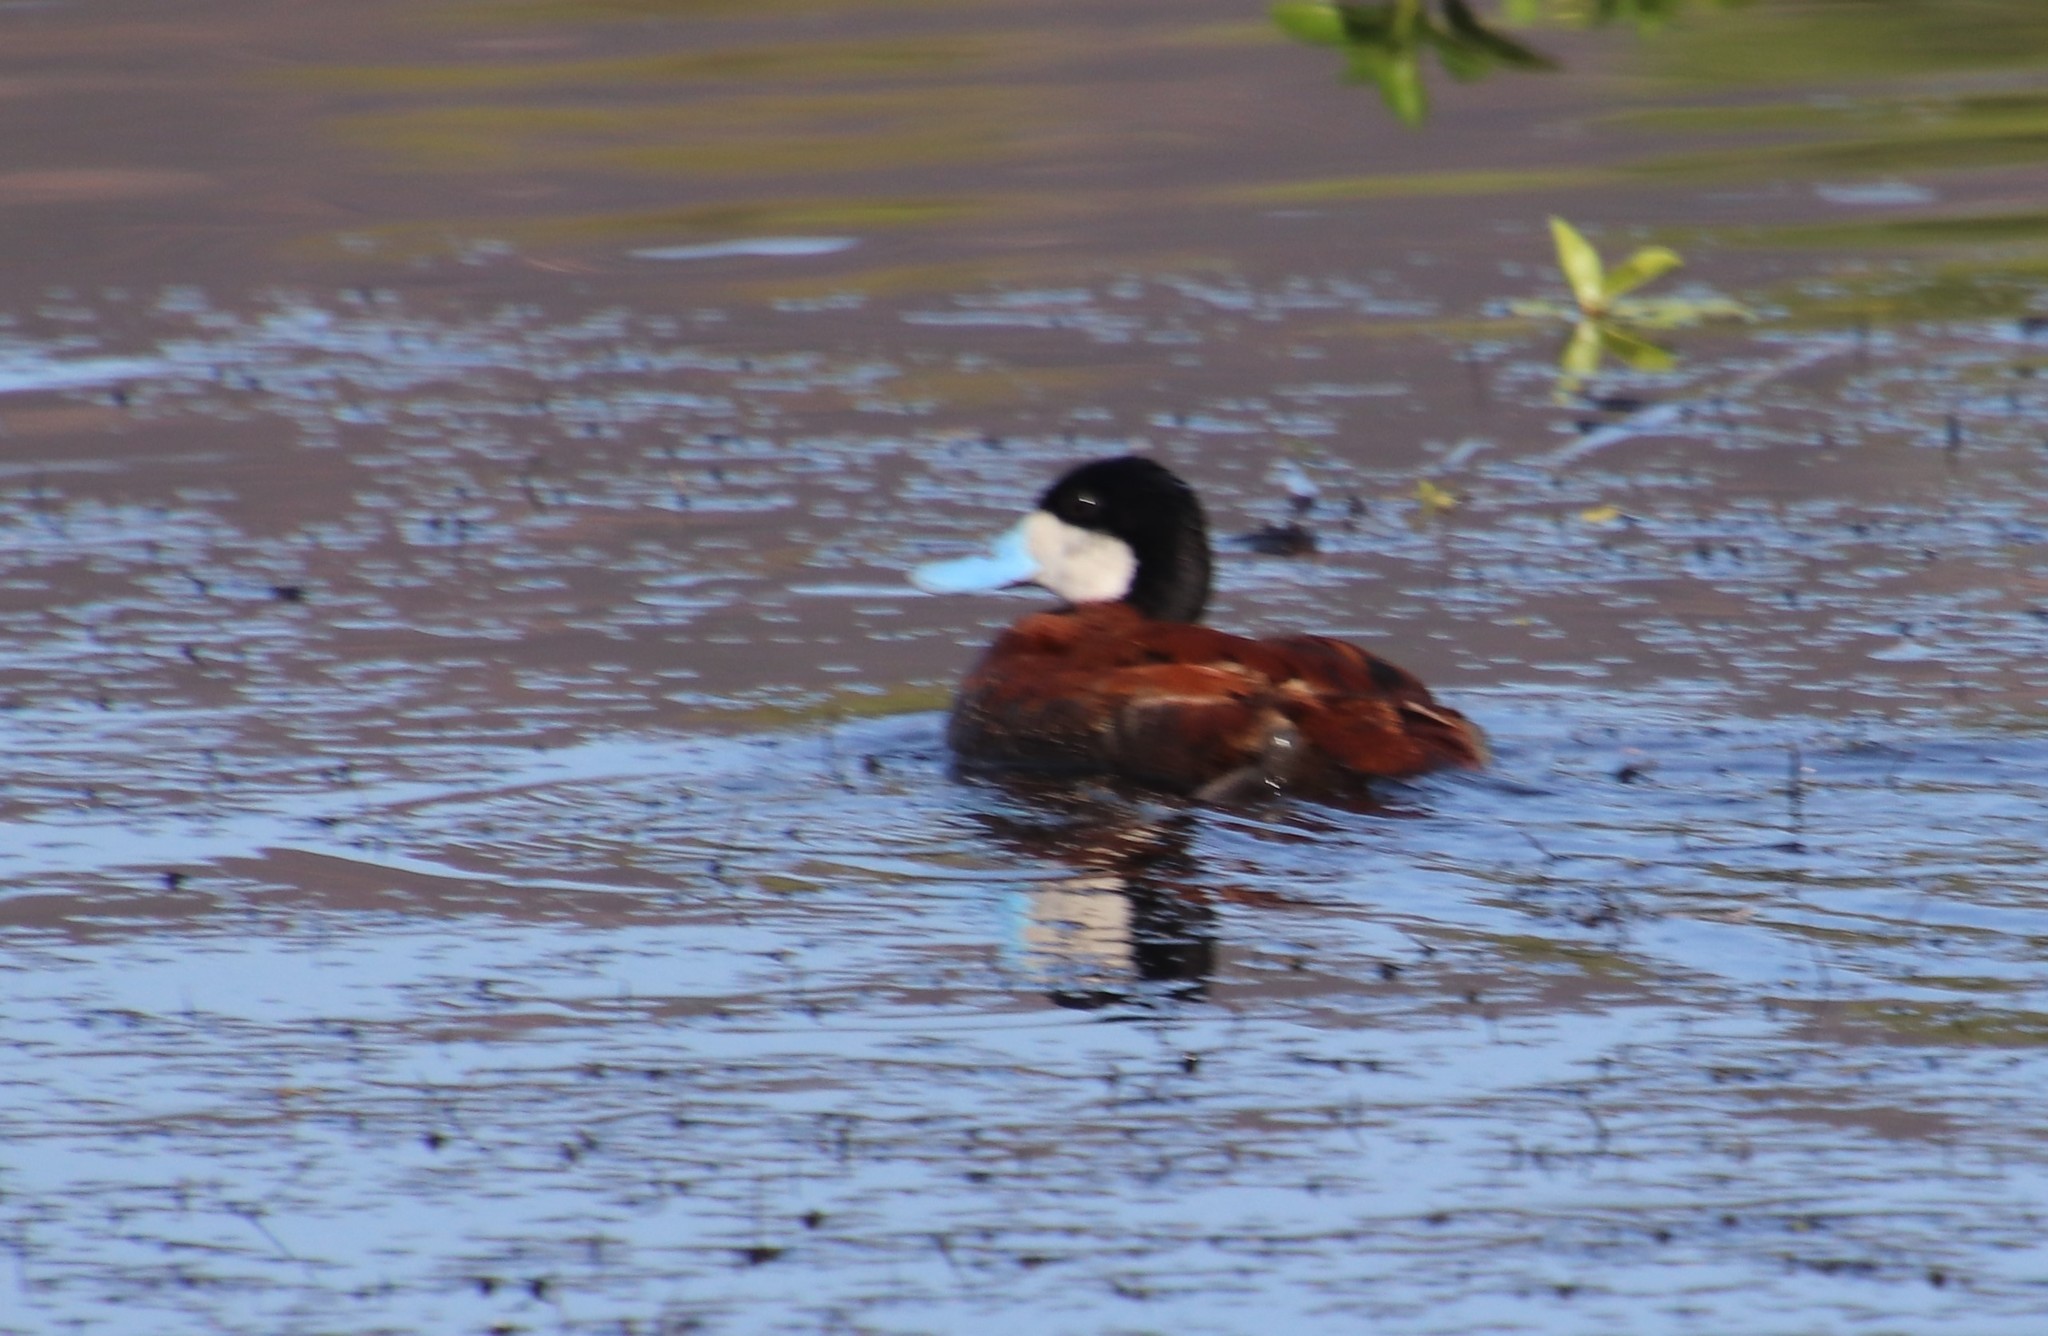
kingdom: Animalia
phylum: Chordata
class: Aves
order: Anseriformes
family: Anatidae
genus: Oxyura
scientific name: Oxyura jamaicensis
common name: Ruddy duck
